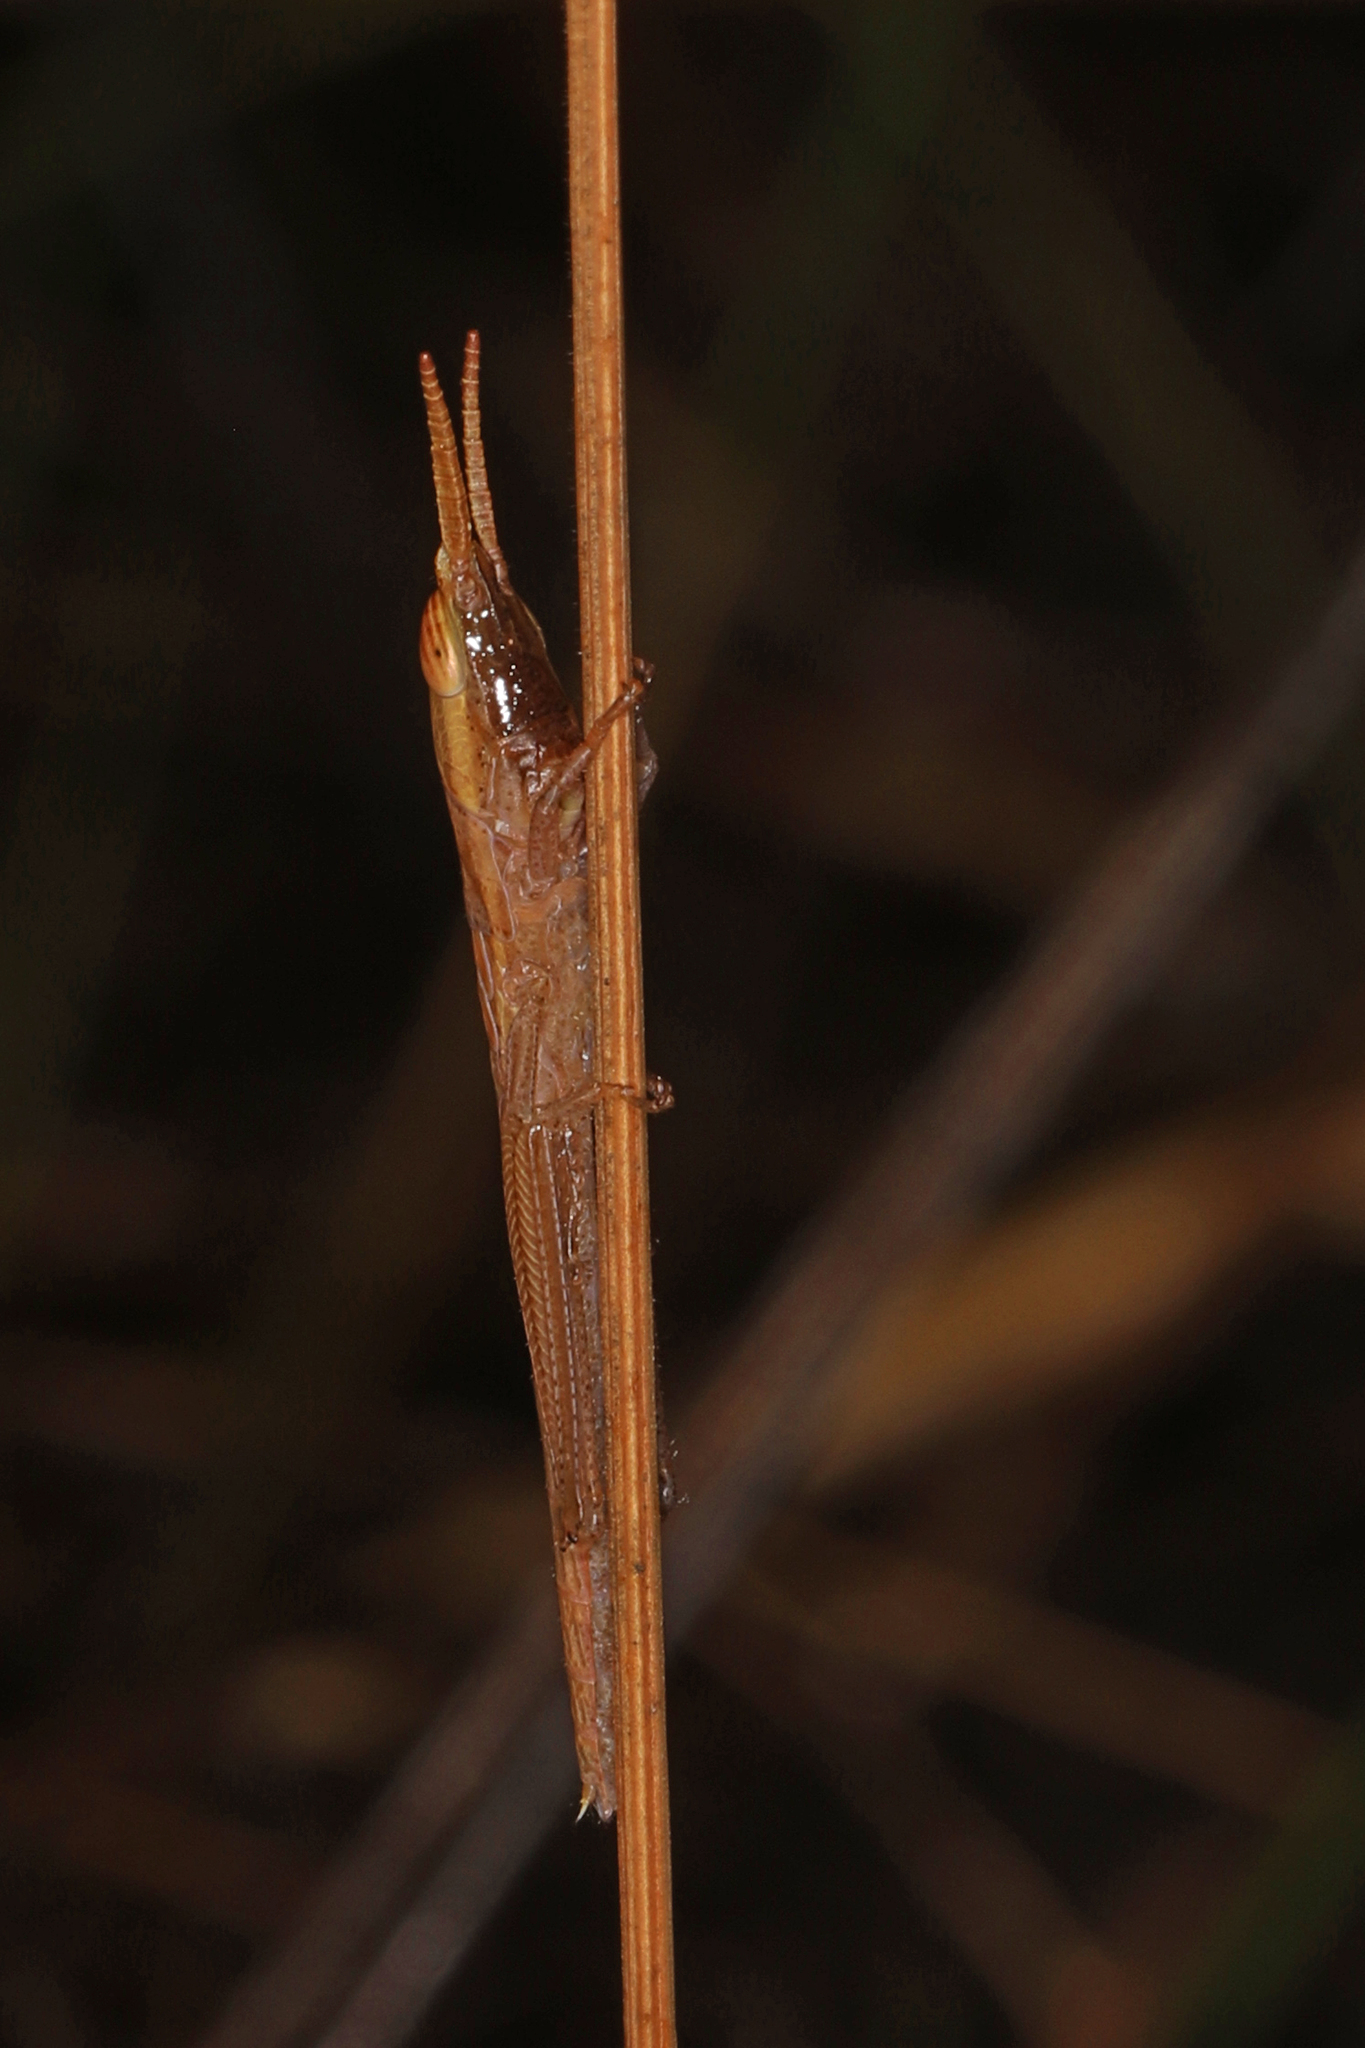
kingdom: Animalia
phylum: Arthropoda
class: Insecta
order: Orthoptera
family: Acrididae
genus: Leptysma
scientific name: Leptysma marginicollis
